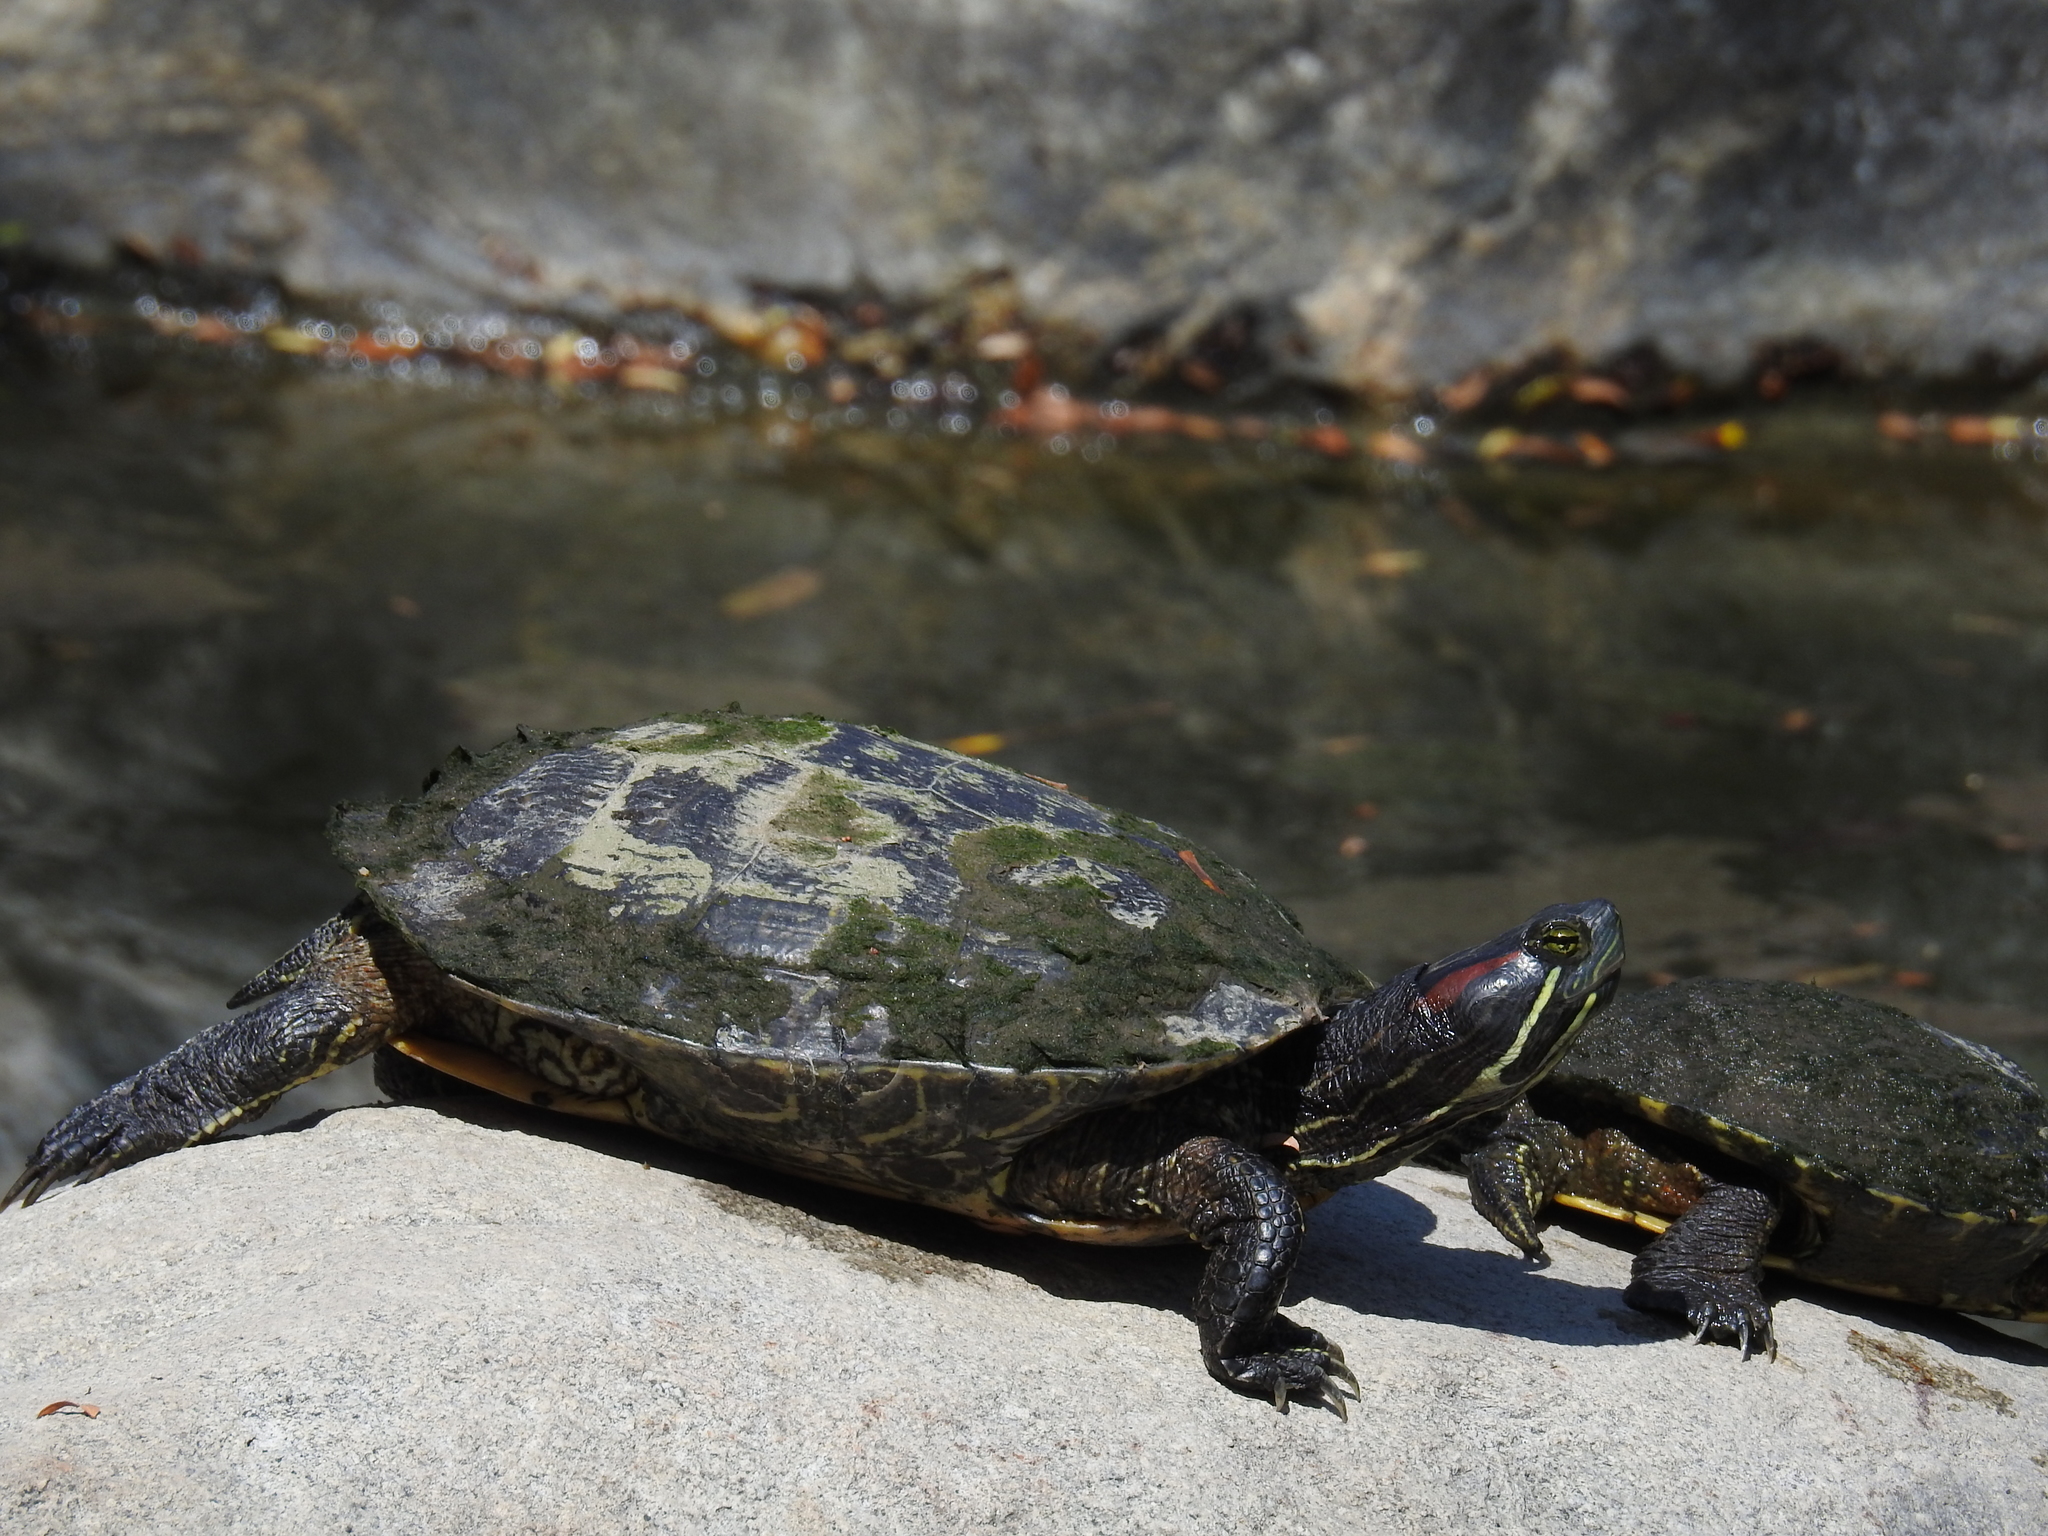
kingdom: Animalia
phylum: Chordata
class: Testudines
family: Emydidae
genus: Trachemys
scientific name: Trachemys scripta
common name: Slider
